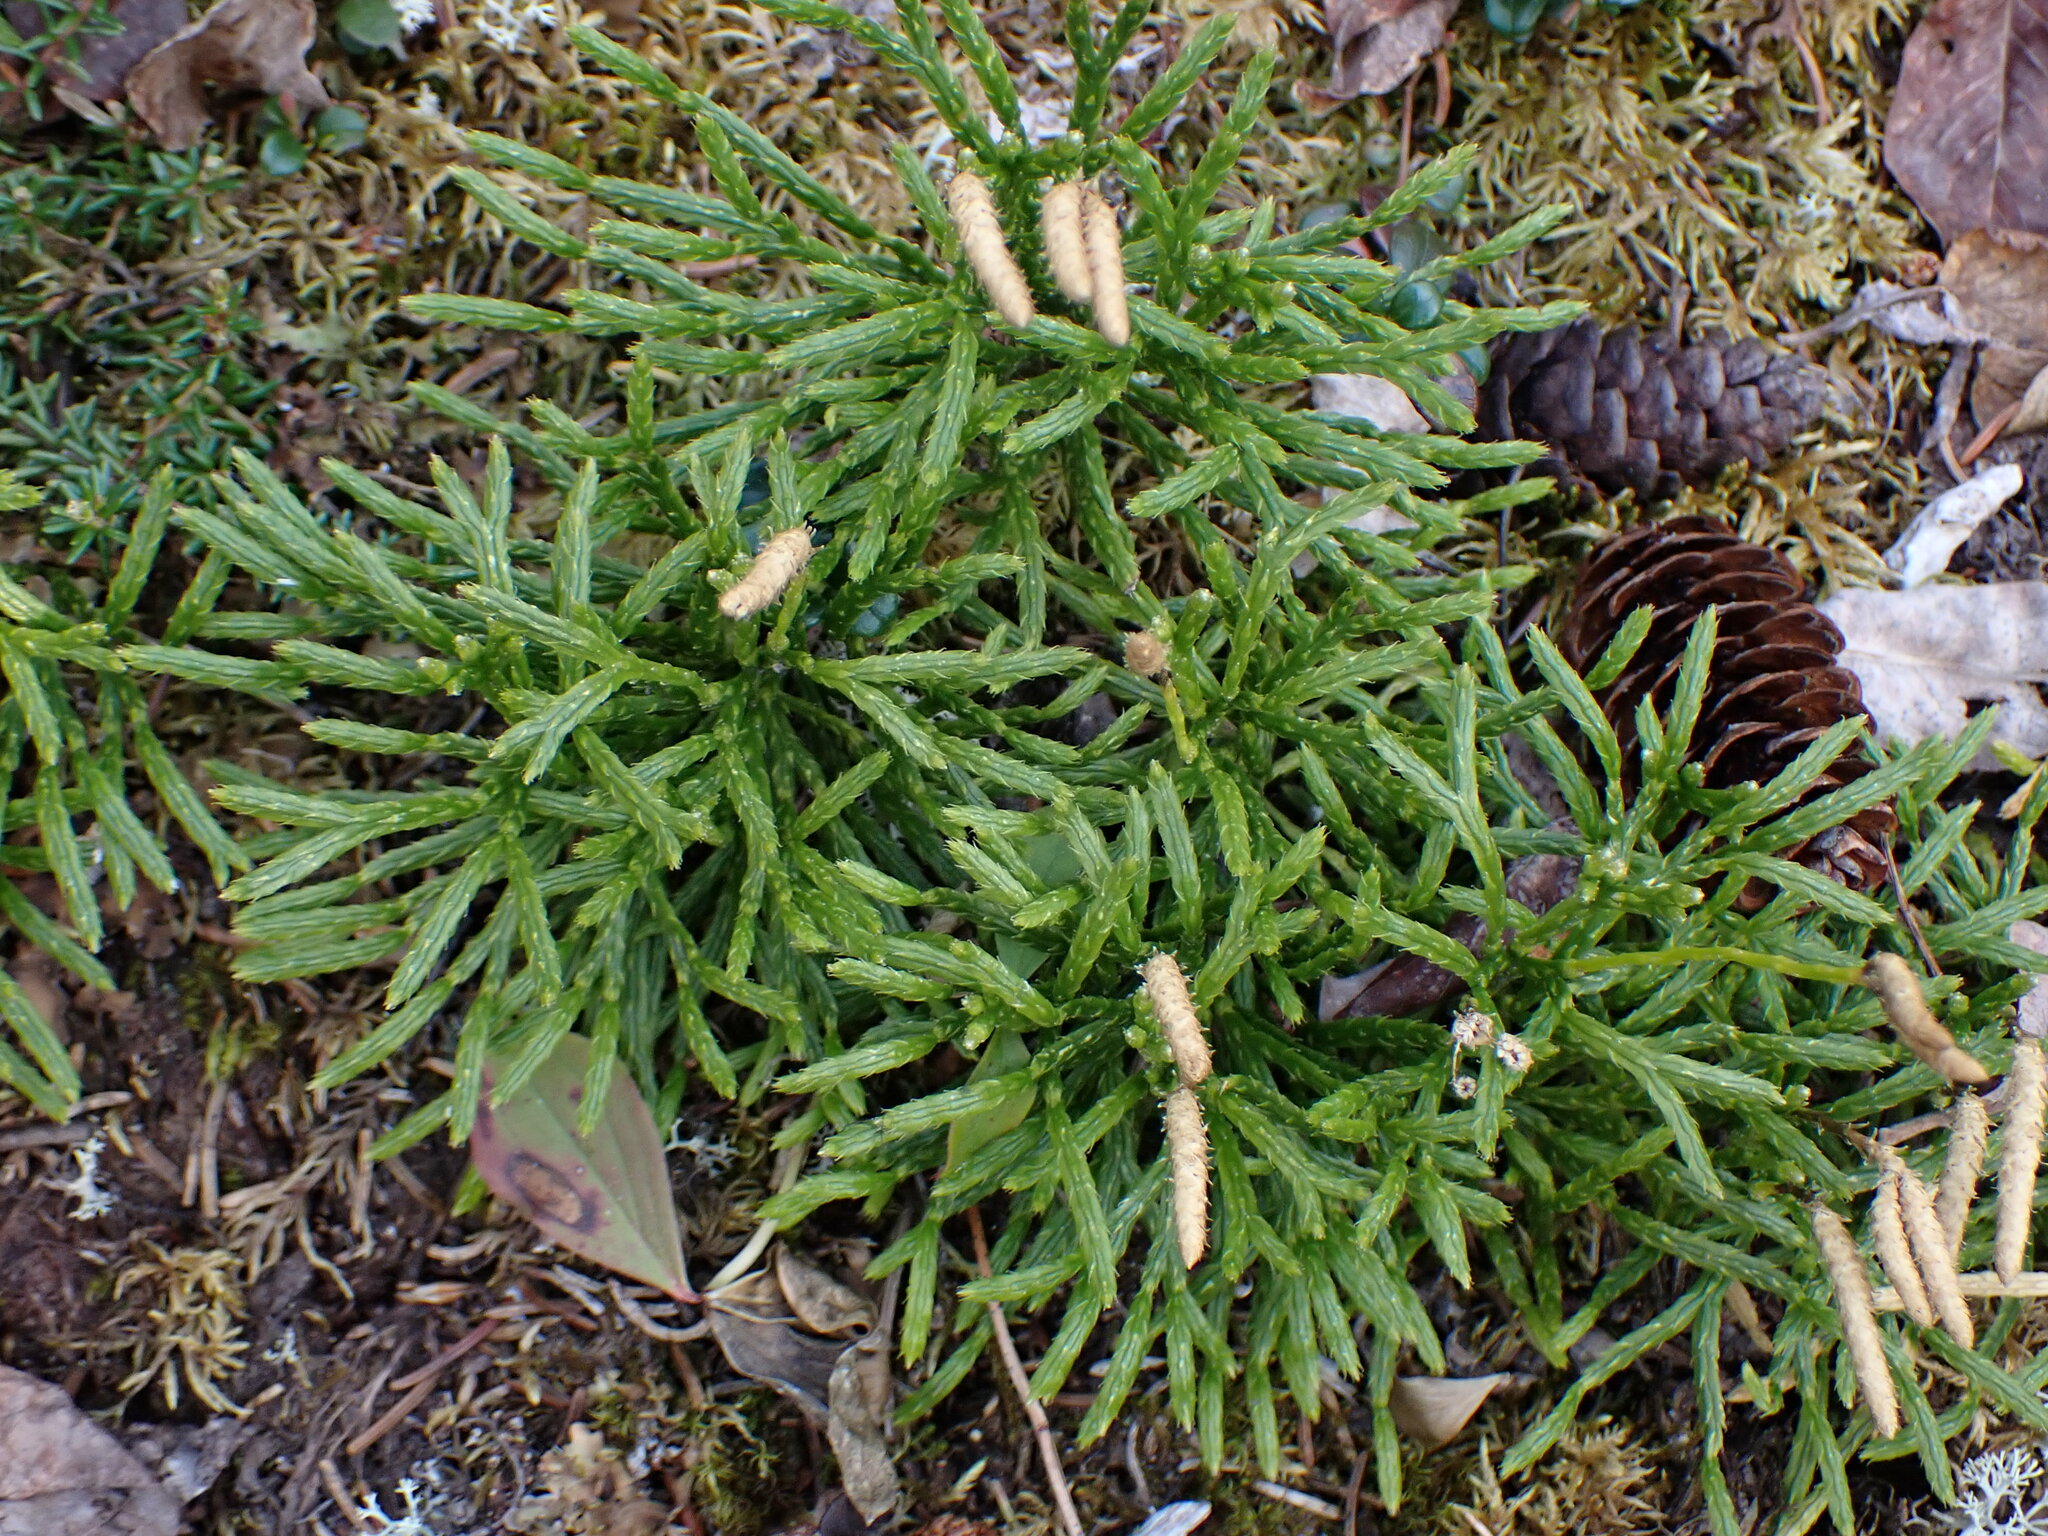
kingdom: Plantae
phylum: Tracheophyta
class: Lycopodiopsida
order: Lycopodiales
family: Lycopodiaceae
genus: Diphasiastrum
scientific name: Diphasiastrum complanatum
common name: Northern running-pine
